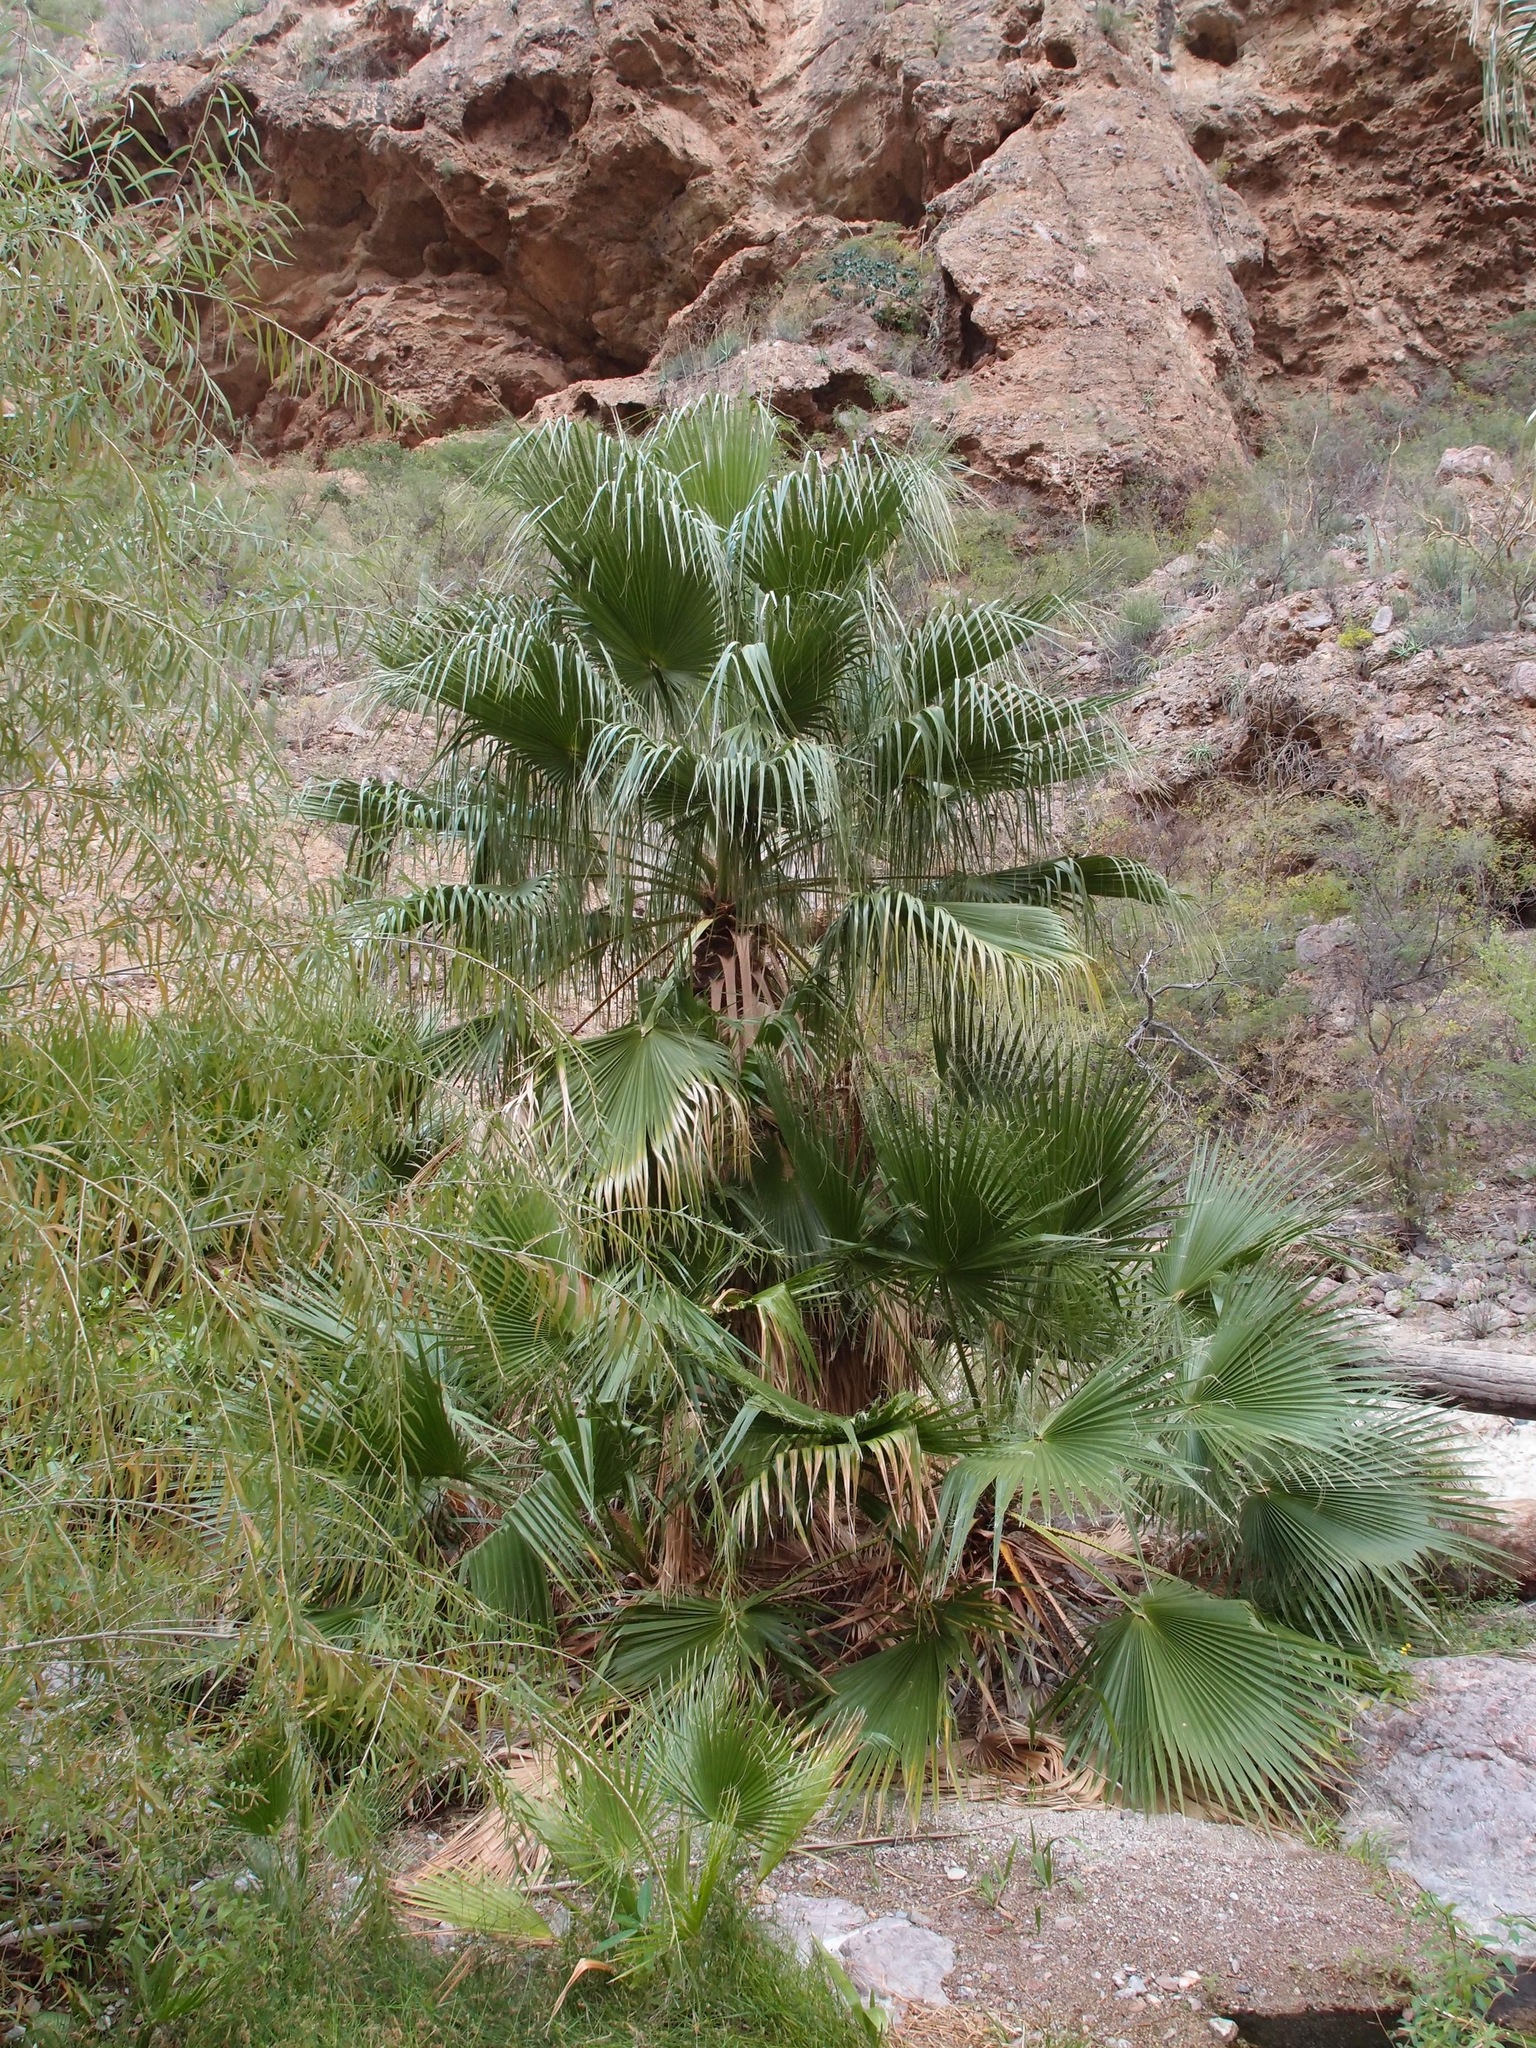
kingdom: Plantae
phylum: Tracheophyta
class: Liliopsida
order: Arecales
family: Arecaceae
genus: Washingtonia
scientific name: Washingtonia robusta
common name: Mexican fan palm
